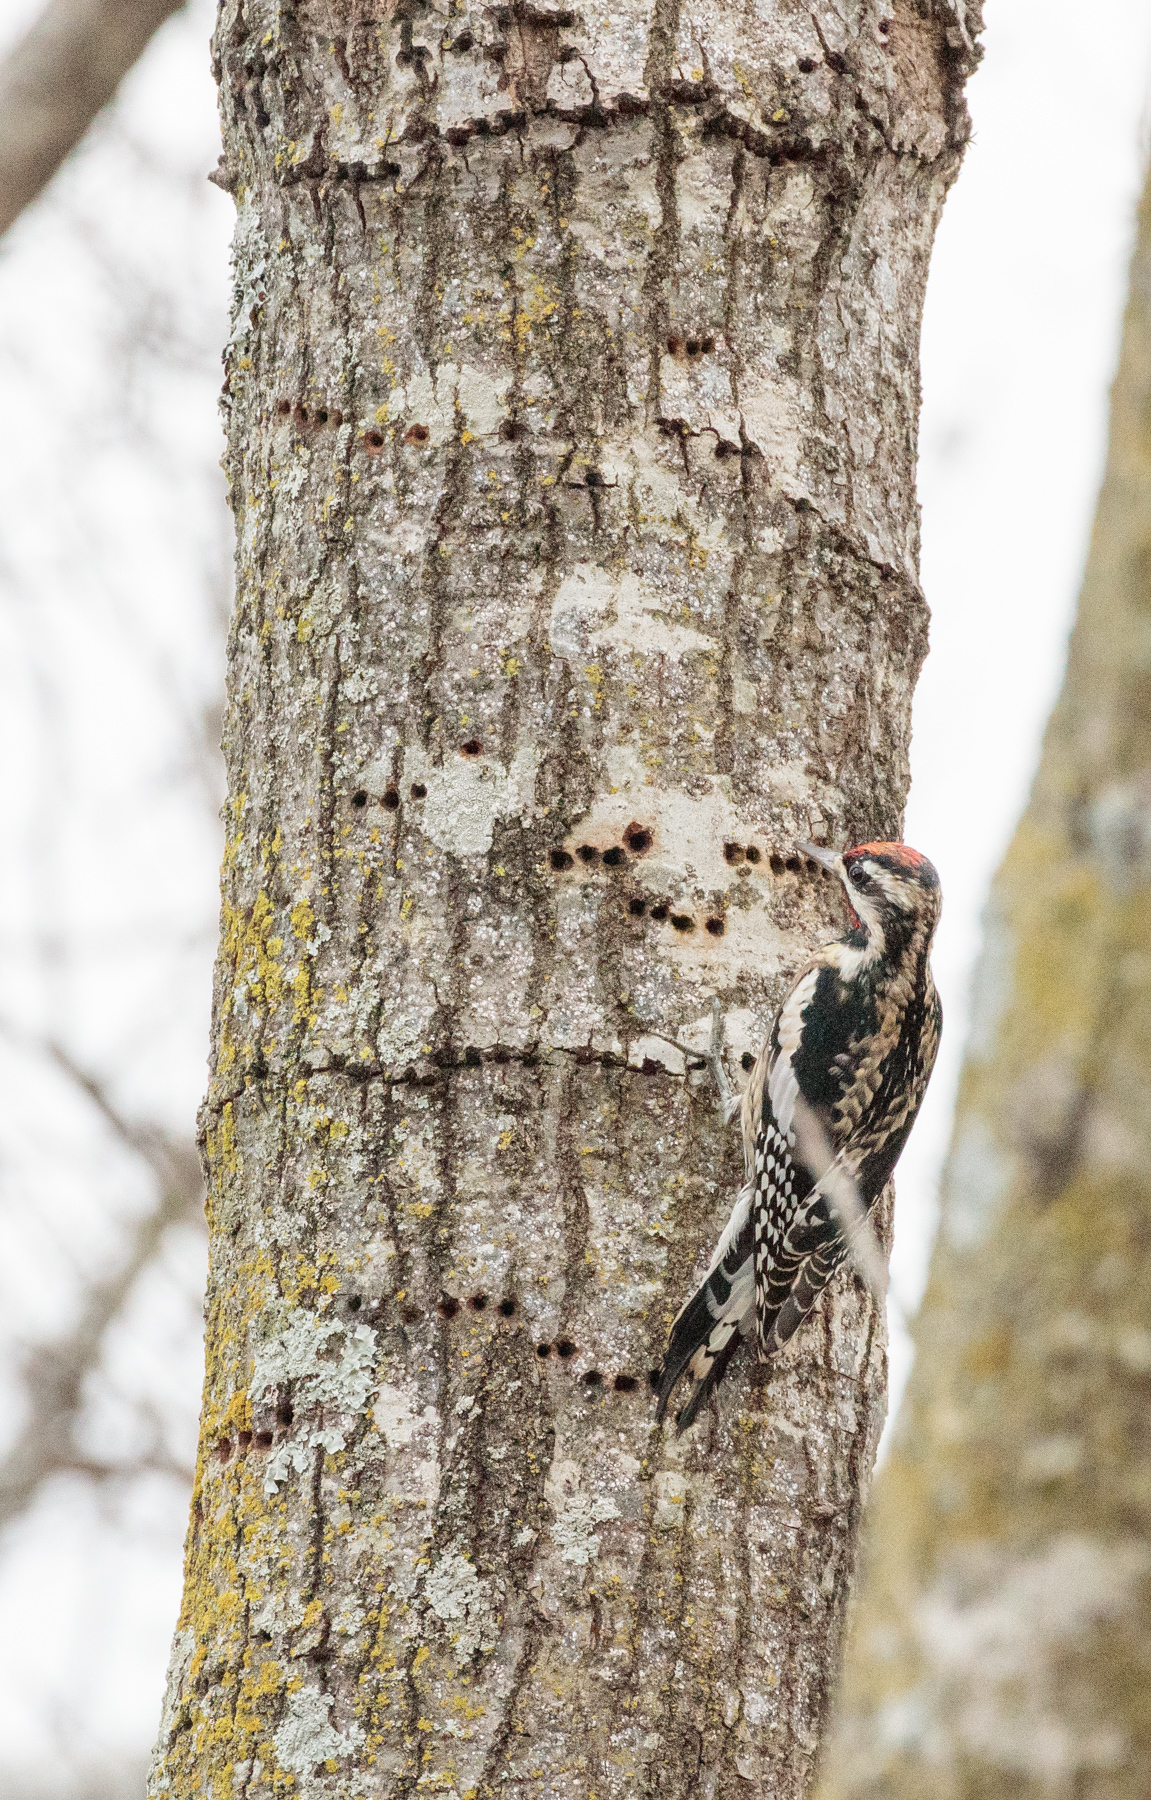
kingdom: Animalia
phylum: Chordata
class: Aves
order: Piciformes
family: Picidae
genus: Sphyrapicus
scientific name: Sphyrapicus varius
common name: Yellow-bellied sapsucker
